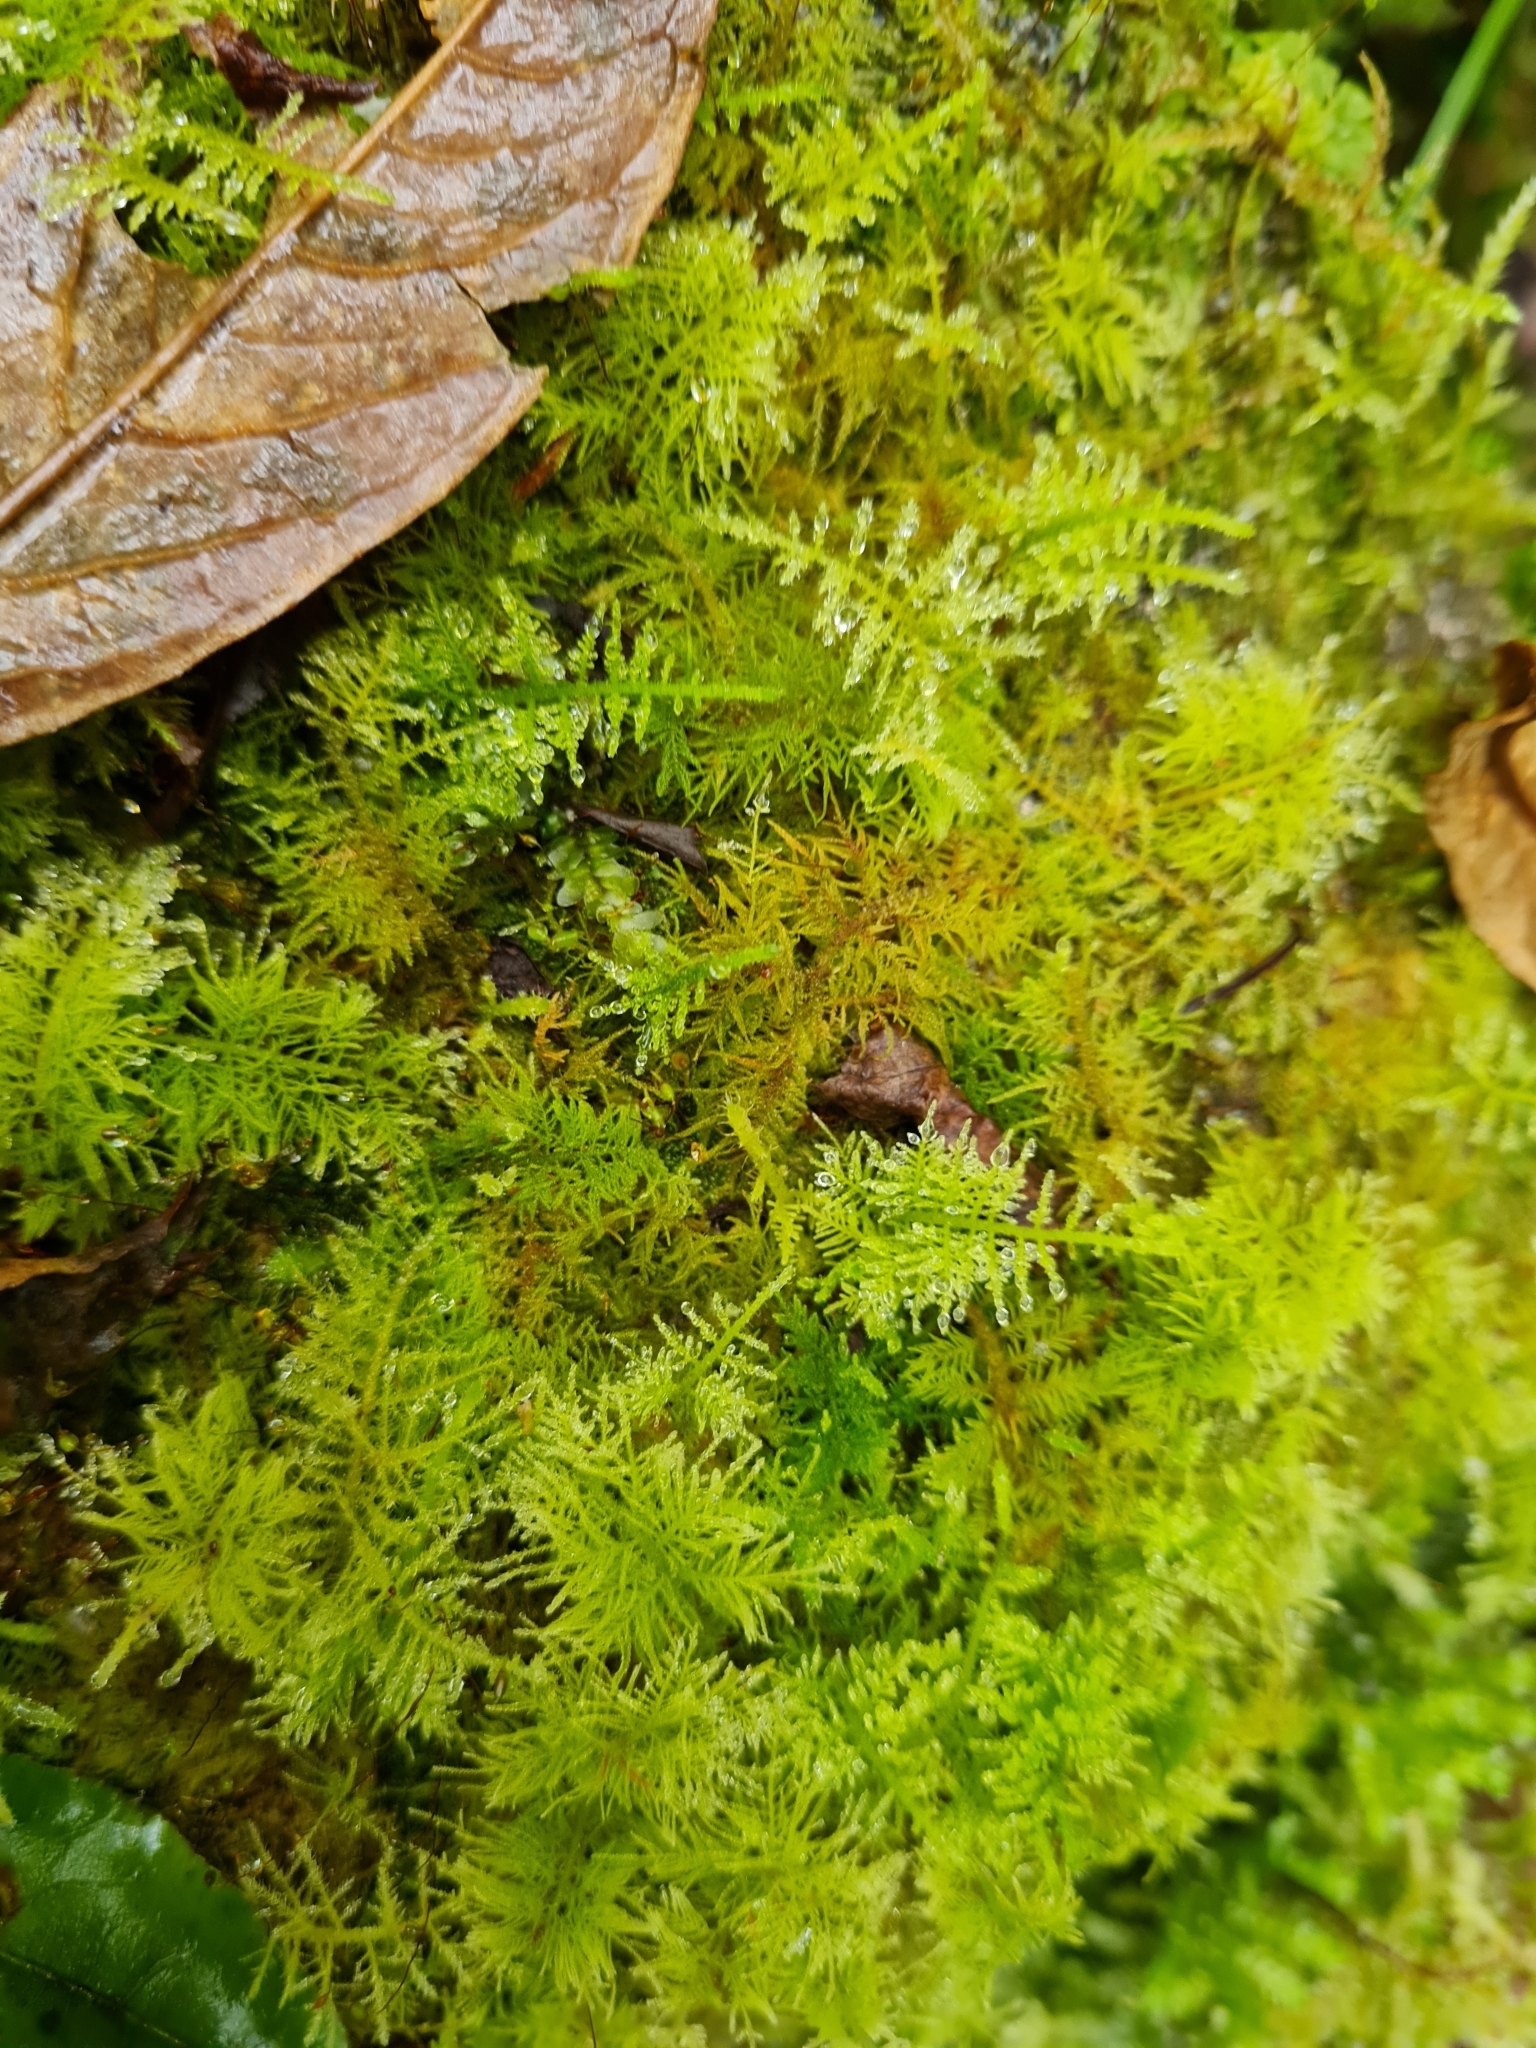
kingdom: Plantae
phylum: Bryophyta
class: Bryopsida
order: Hypnales
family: Thuidiaceae
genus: Thuidiopsis
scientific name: Thuidiopsis furfurosa
